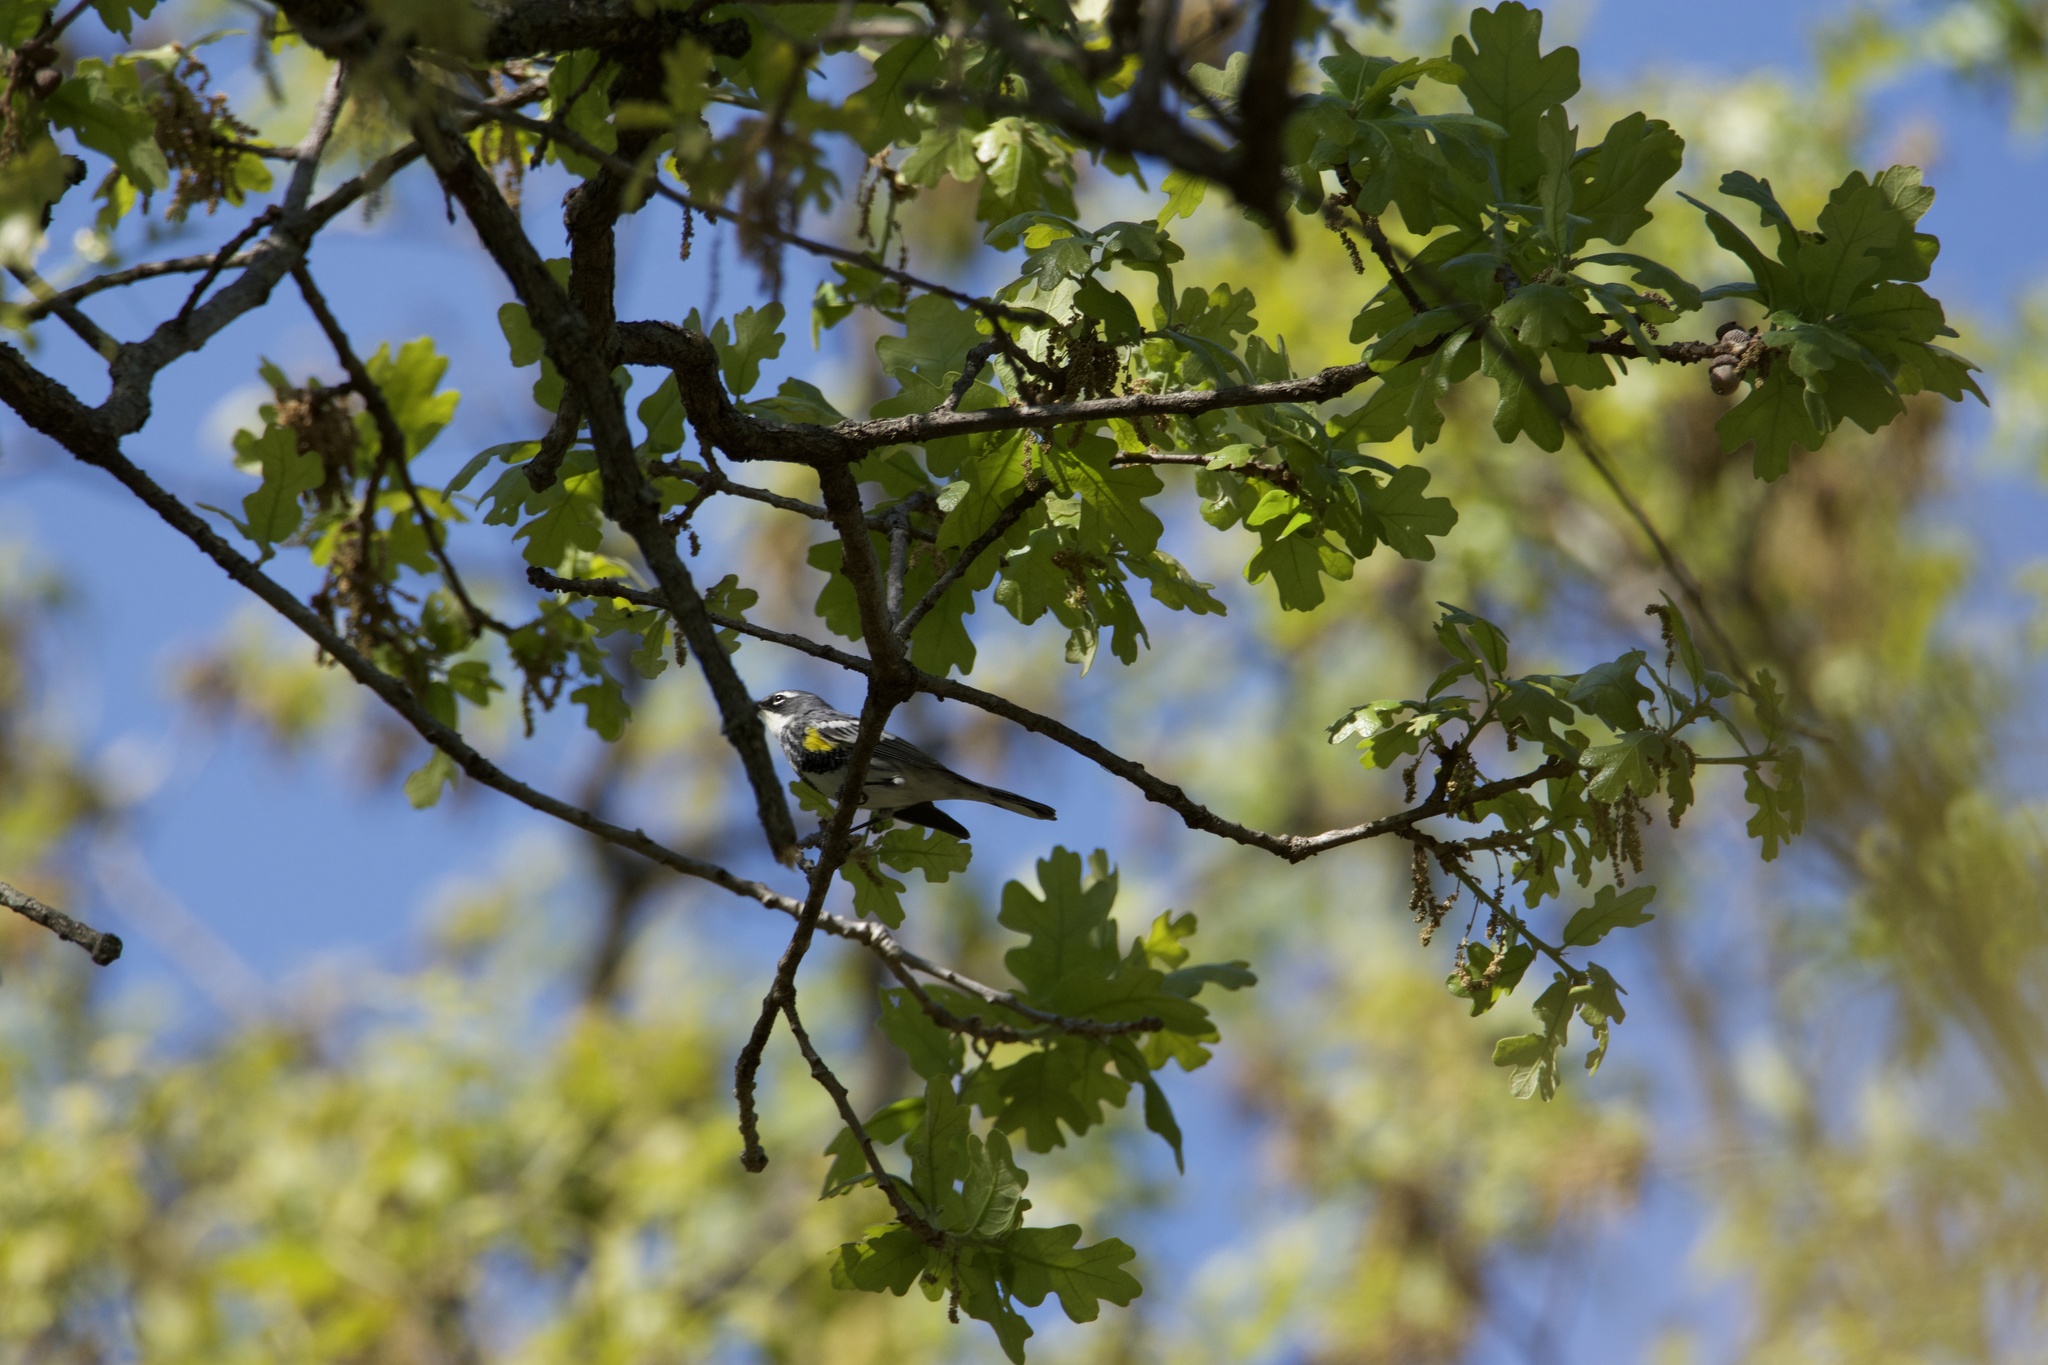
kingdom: Animalia
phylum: Chordata
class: Aves
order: Passeriformes
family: Parulidae
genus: Setophaga
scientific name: Setophaga coronata
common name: Myrtle warbler
